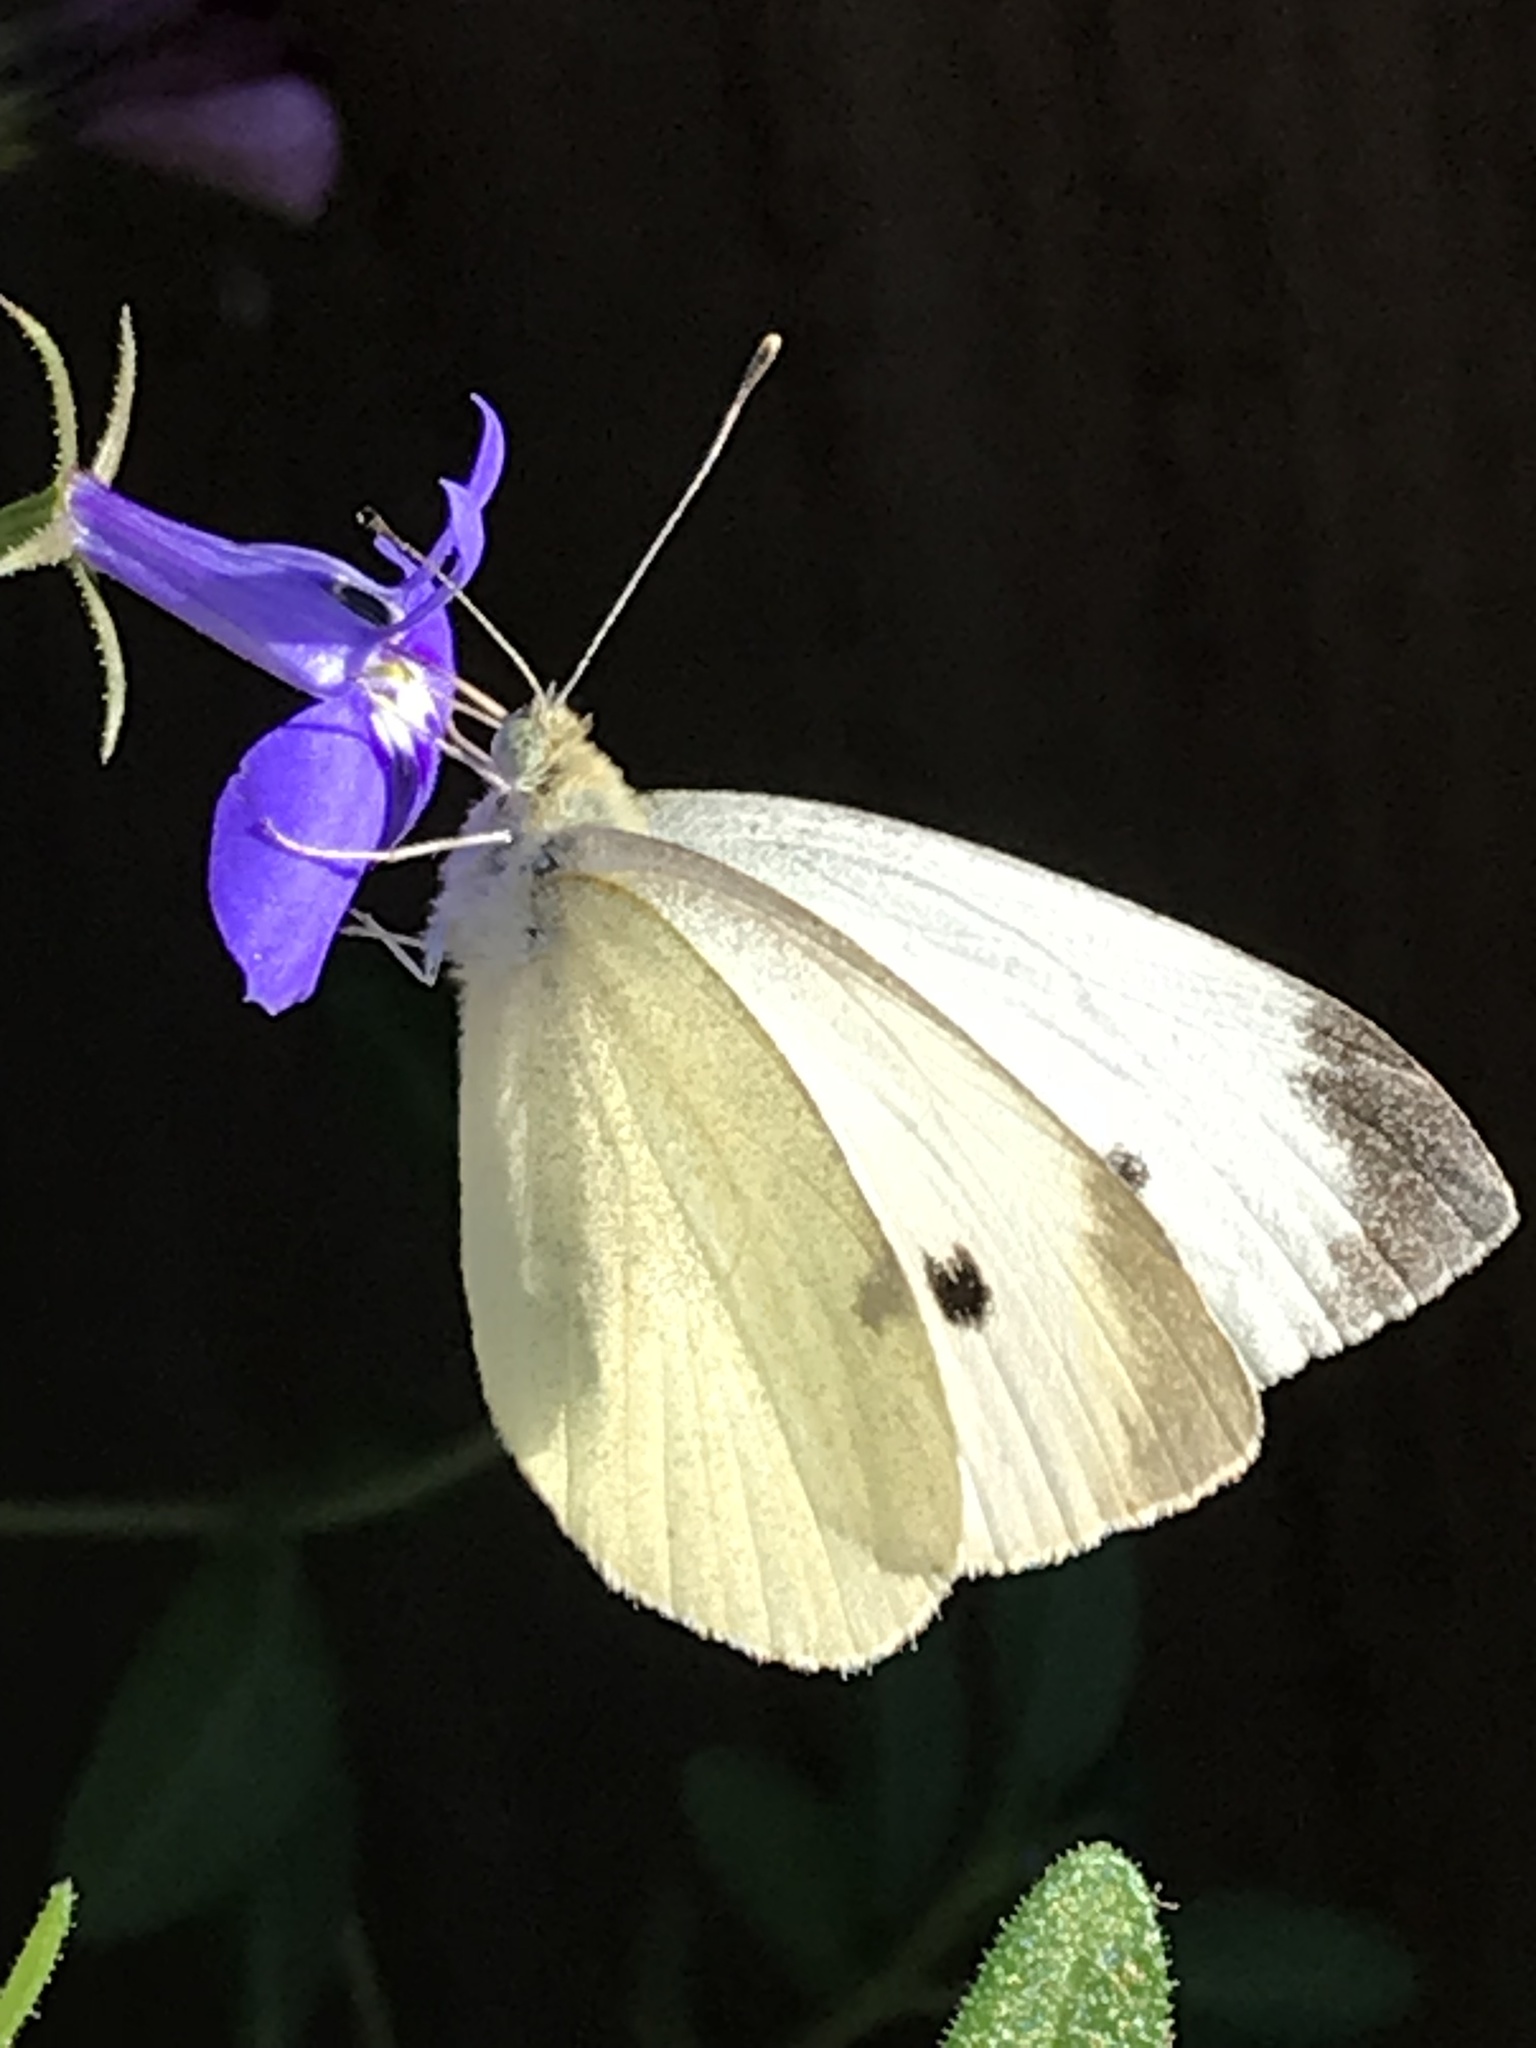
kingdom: Animalia
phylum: Arthropoda
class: Insecta
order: Lepidoptera
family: Pieridae
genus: Pieris
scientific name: Pieris rapae
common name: Small white
